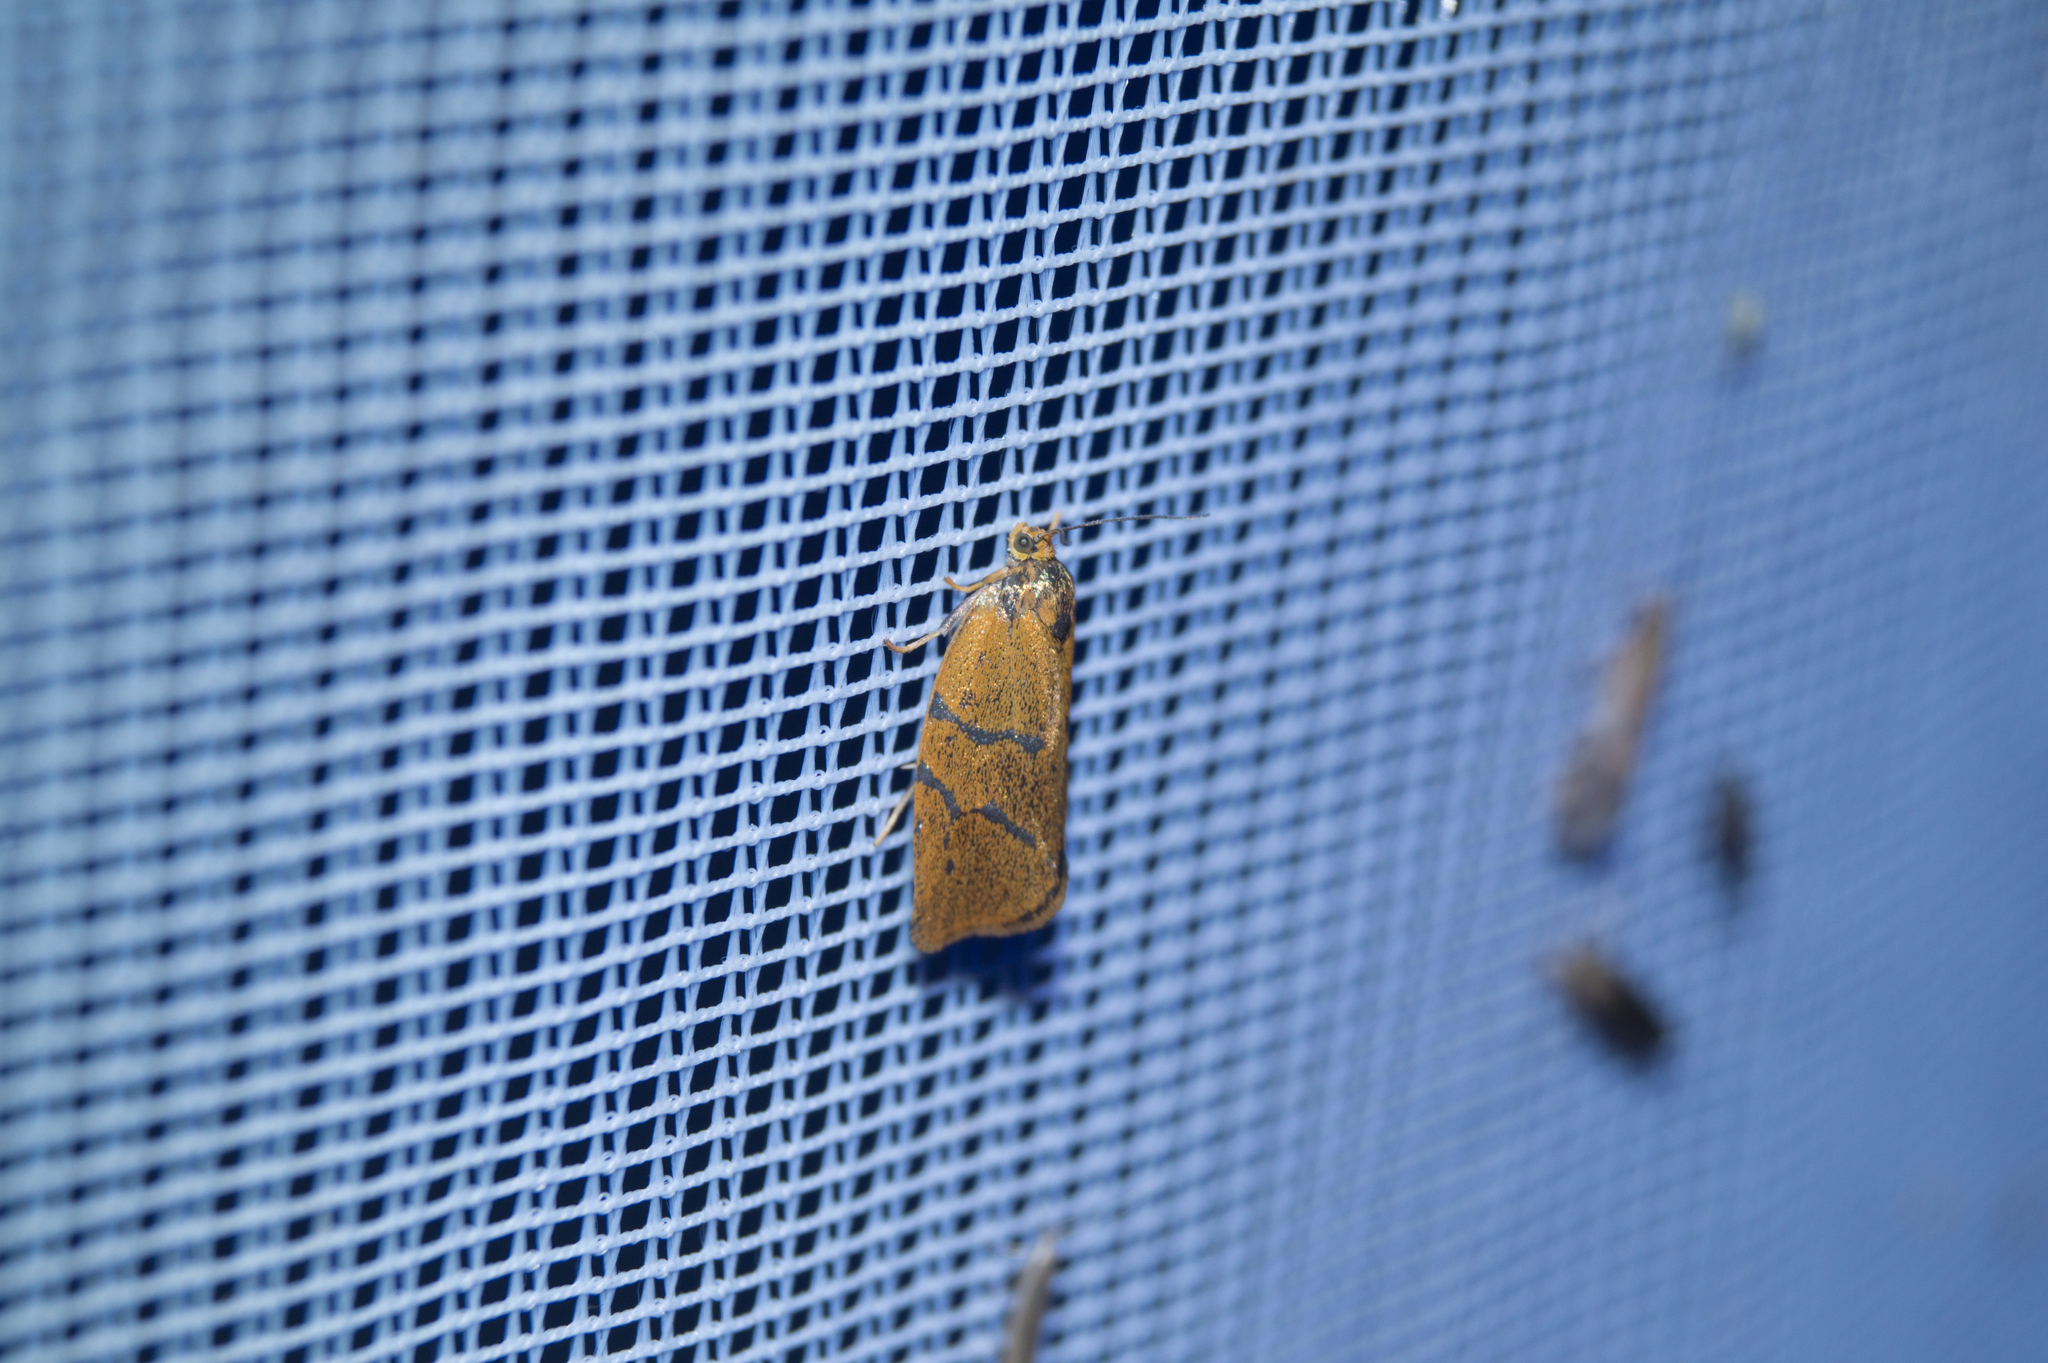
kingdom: Animalia
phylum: Arthropoda
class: Insecta
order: Lepidoptera
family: Tortricidae
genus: Ptycholoma
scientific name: Ptycholoma lecheana
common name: Leches twist moth
